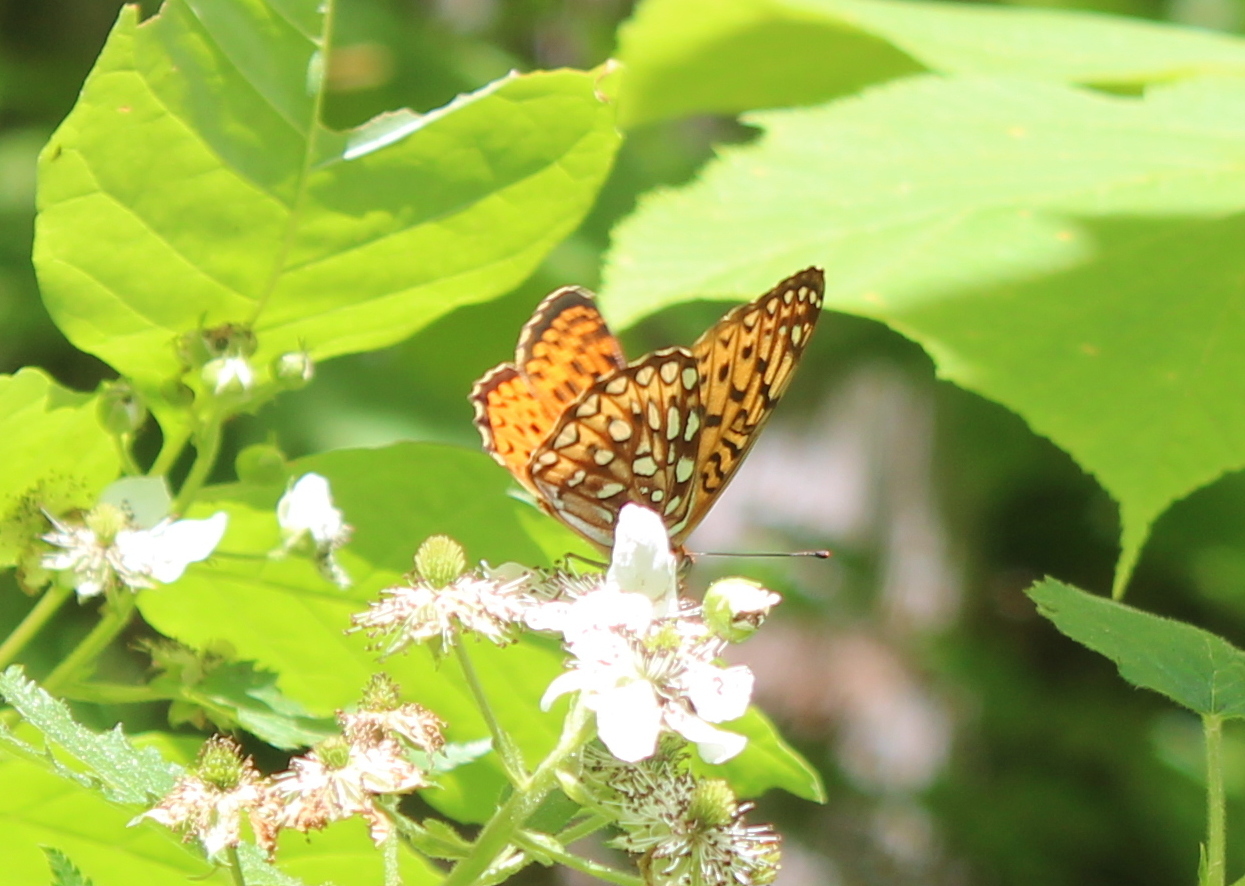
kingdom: Animalia
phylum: Arthropoda
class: Insecta
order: Lepidoptera
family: Nymphalidae
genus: Speyeria
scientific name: Speyeria atlantis
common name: Atlantis fritillary
